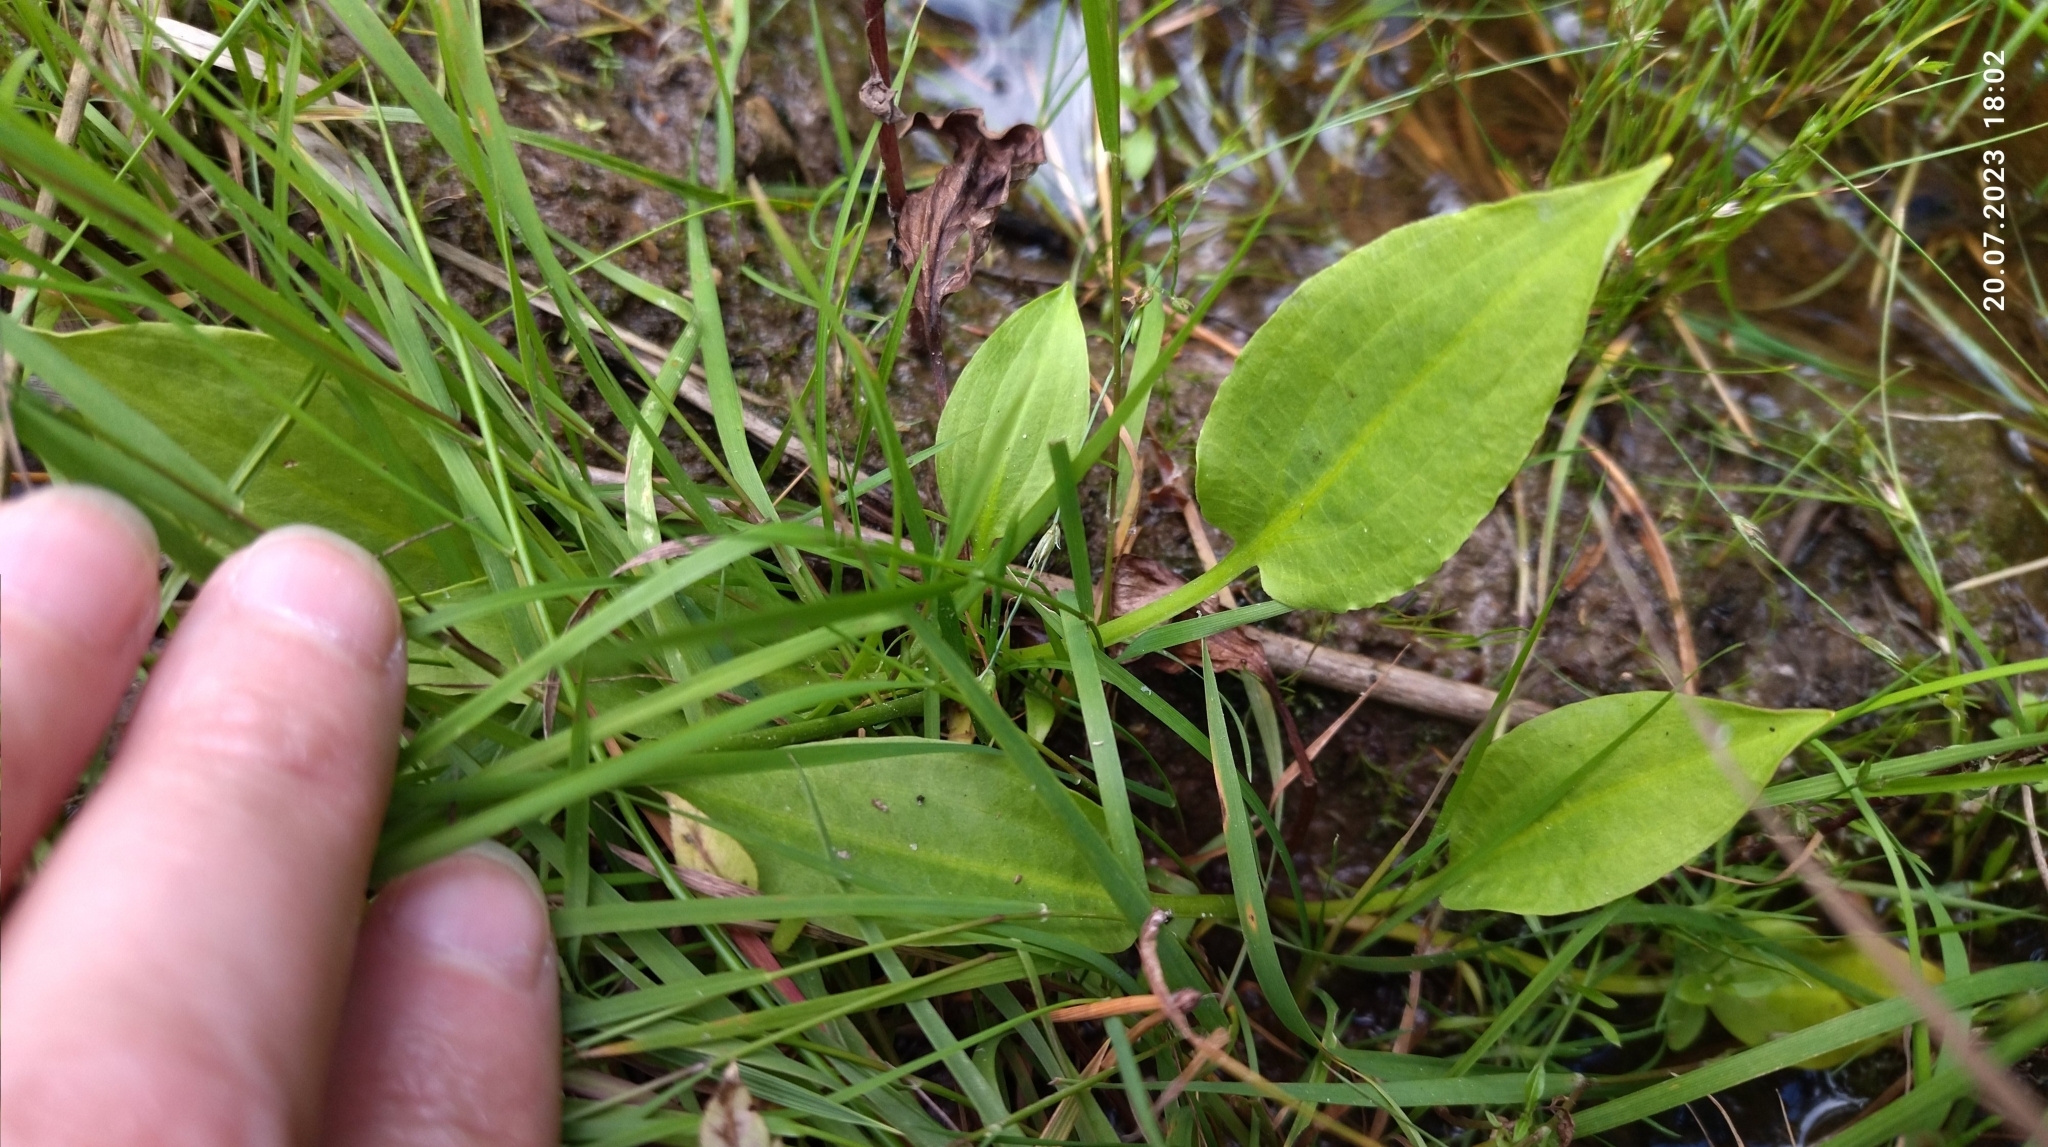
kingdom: Plantae
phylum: Tracheophyta
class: Liliopsida
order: Alismatales
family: Alismataceae
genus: Alisma
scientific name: Alisma plantago-aquatica
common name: Water-plantain
